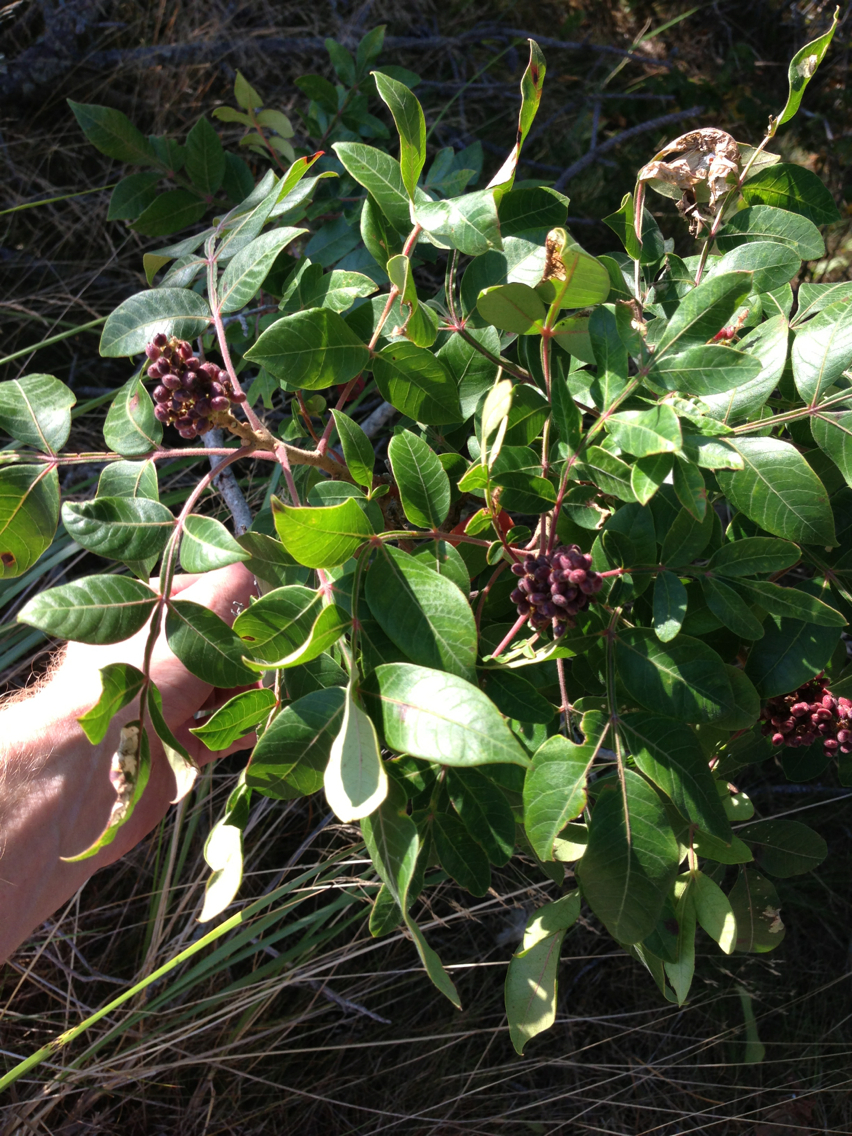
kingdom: Plantae
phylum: Tracheophyta
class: Magnoliopsida
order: Sapindales
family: Anacardiaceae
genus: Rhus
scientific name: Rhus copallina
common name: Shining sumac
